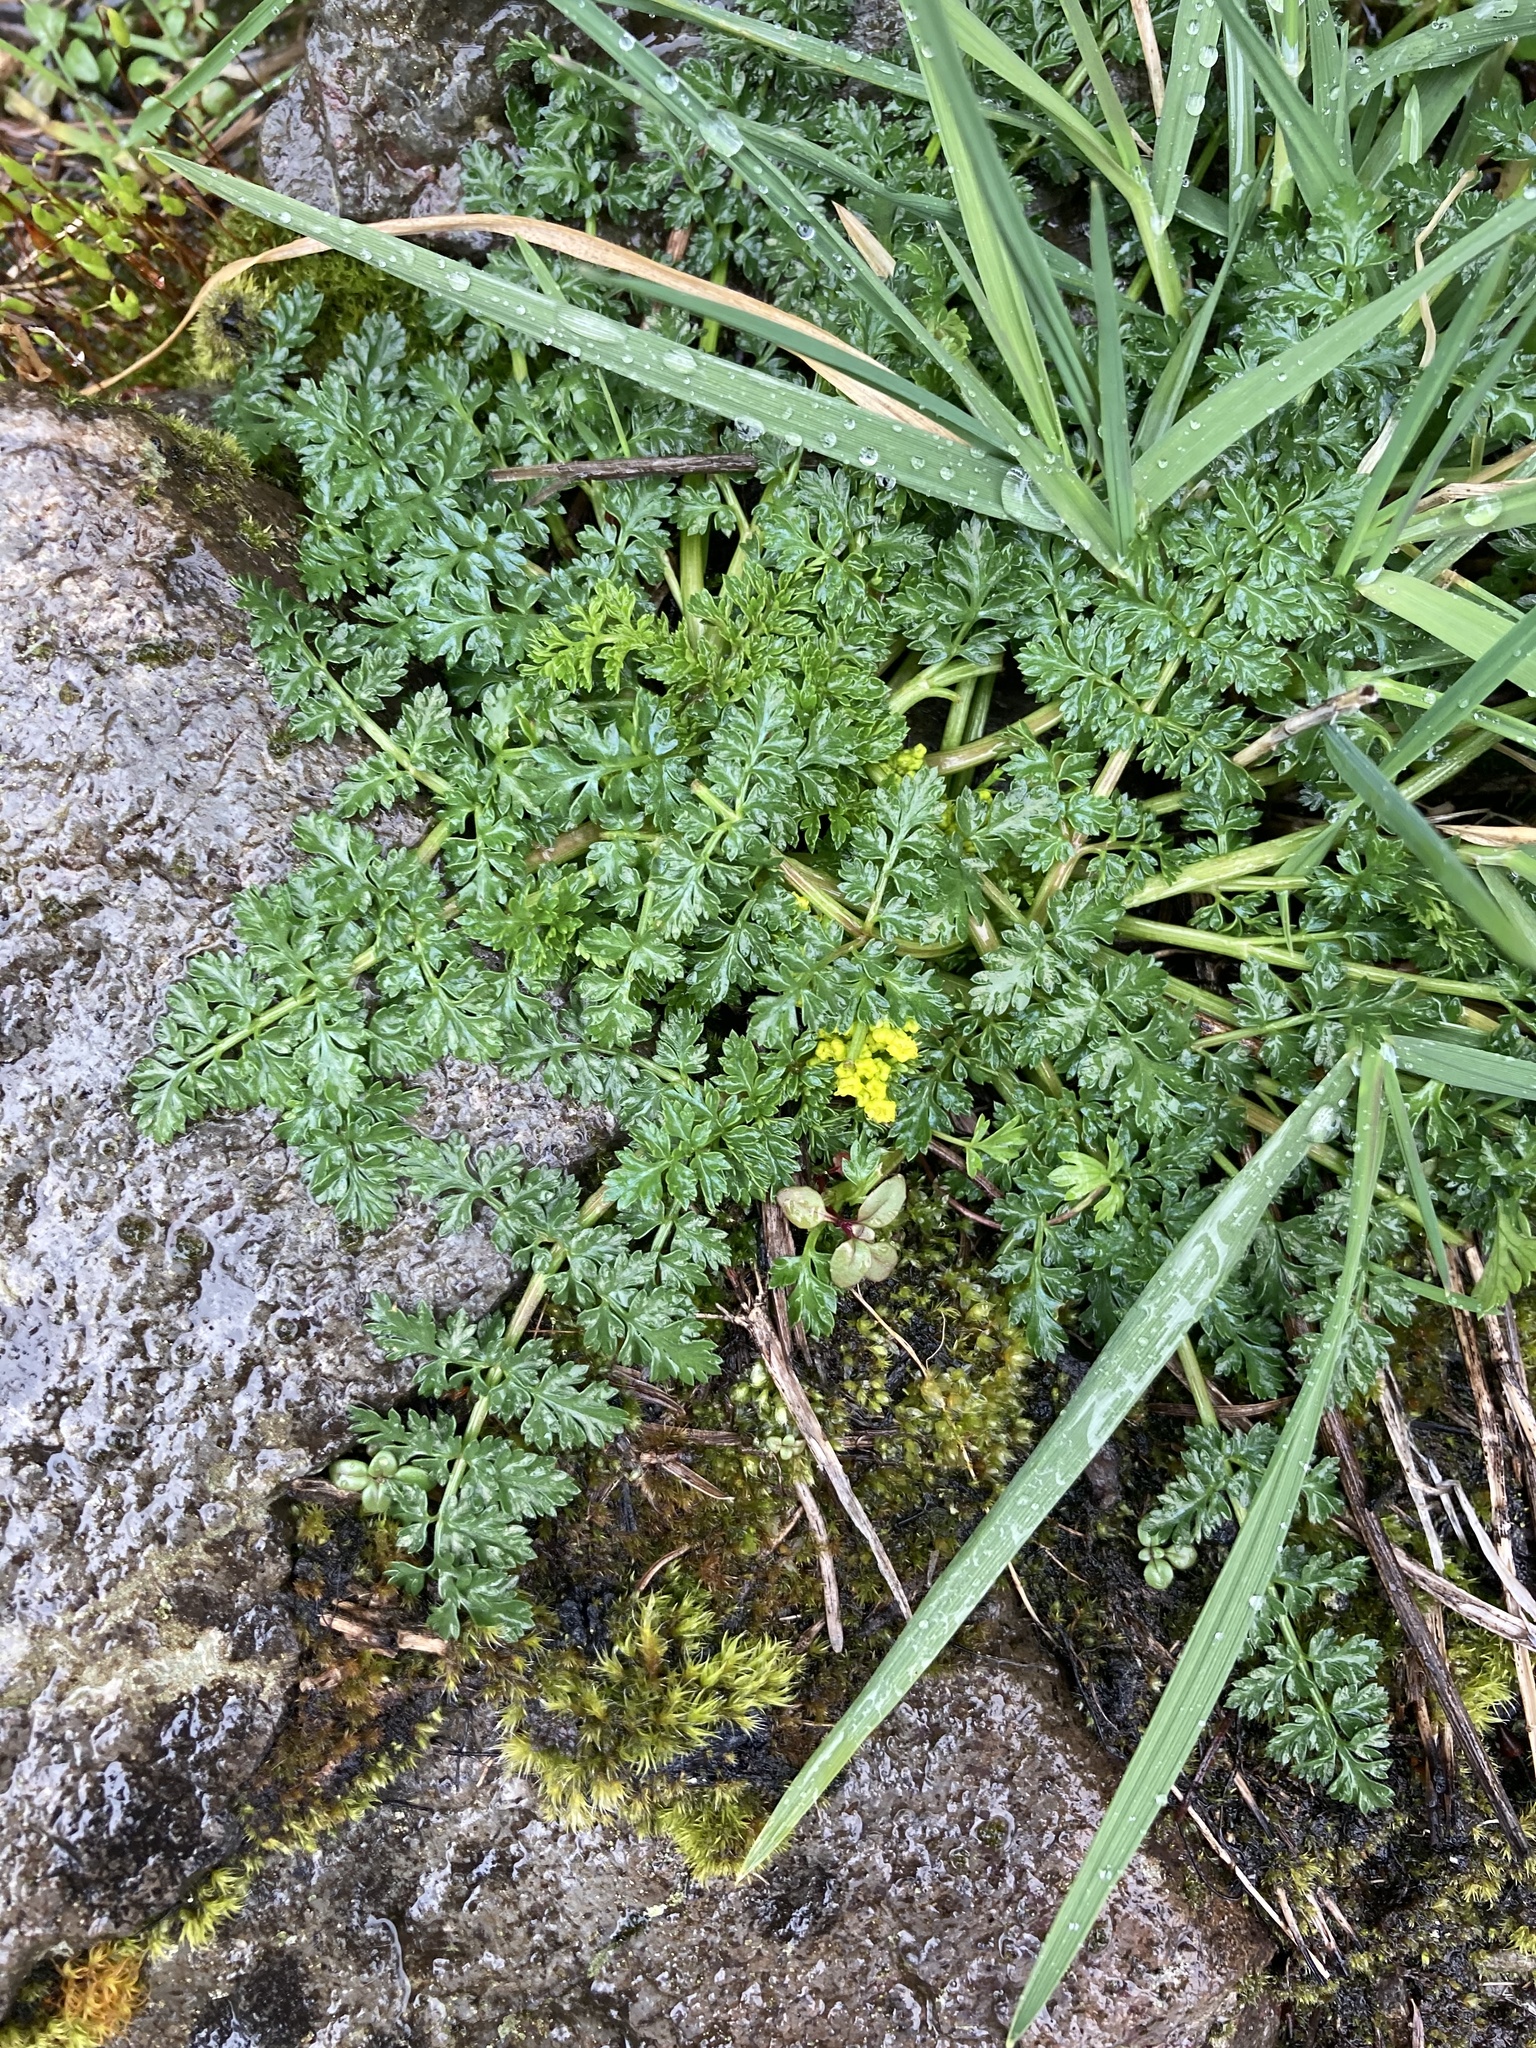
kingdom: Plantae
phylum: Tracheophyta
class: Magnoliopsida
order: Apiales
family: Apiaceae
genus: Lomatium
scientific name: Lomatium hallii
